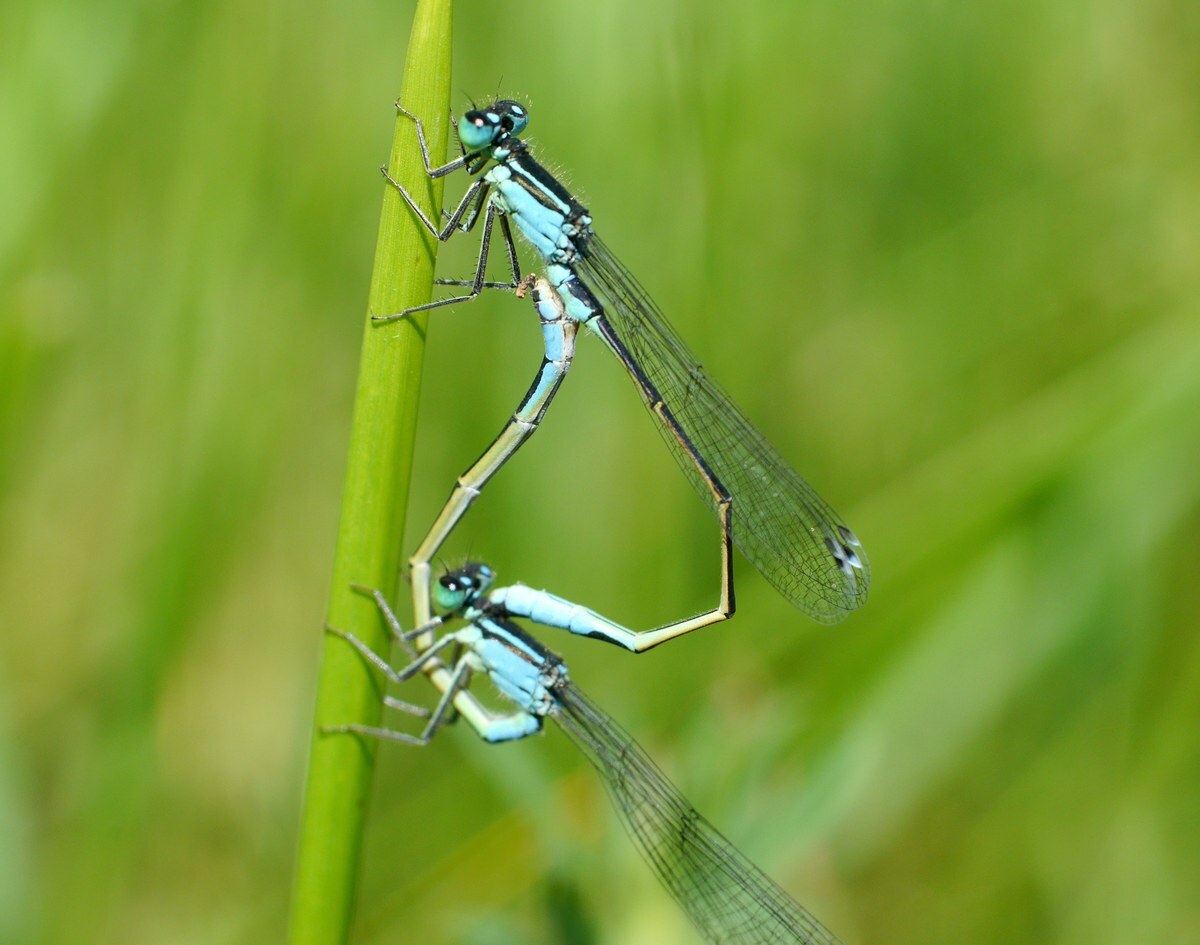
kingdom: Animalia
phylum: Arthropoda
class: Insecta
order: Odonata
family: Coenagrionidae
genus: Ischnura
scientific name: Ischnura elegans
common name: Blue-tailed damselfly
